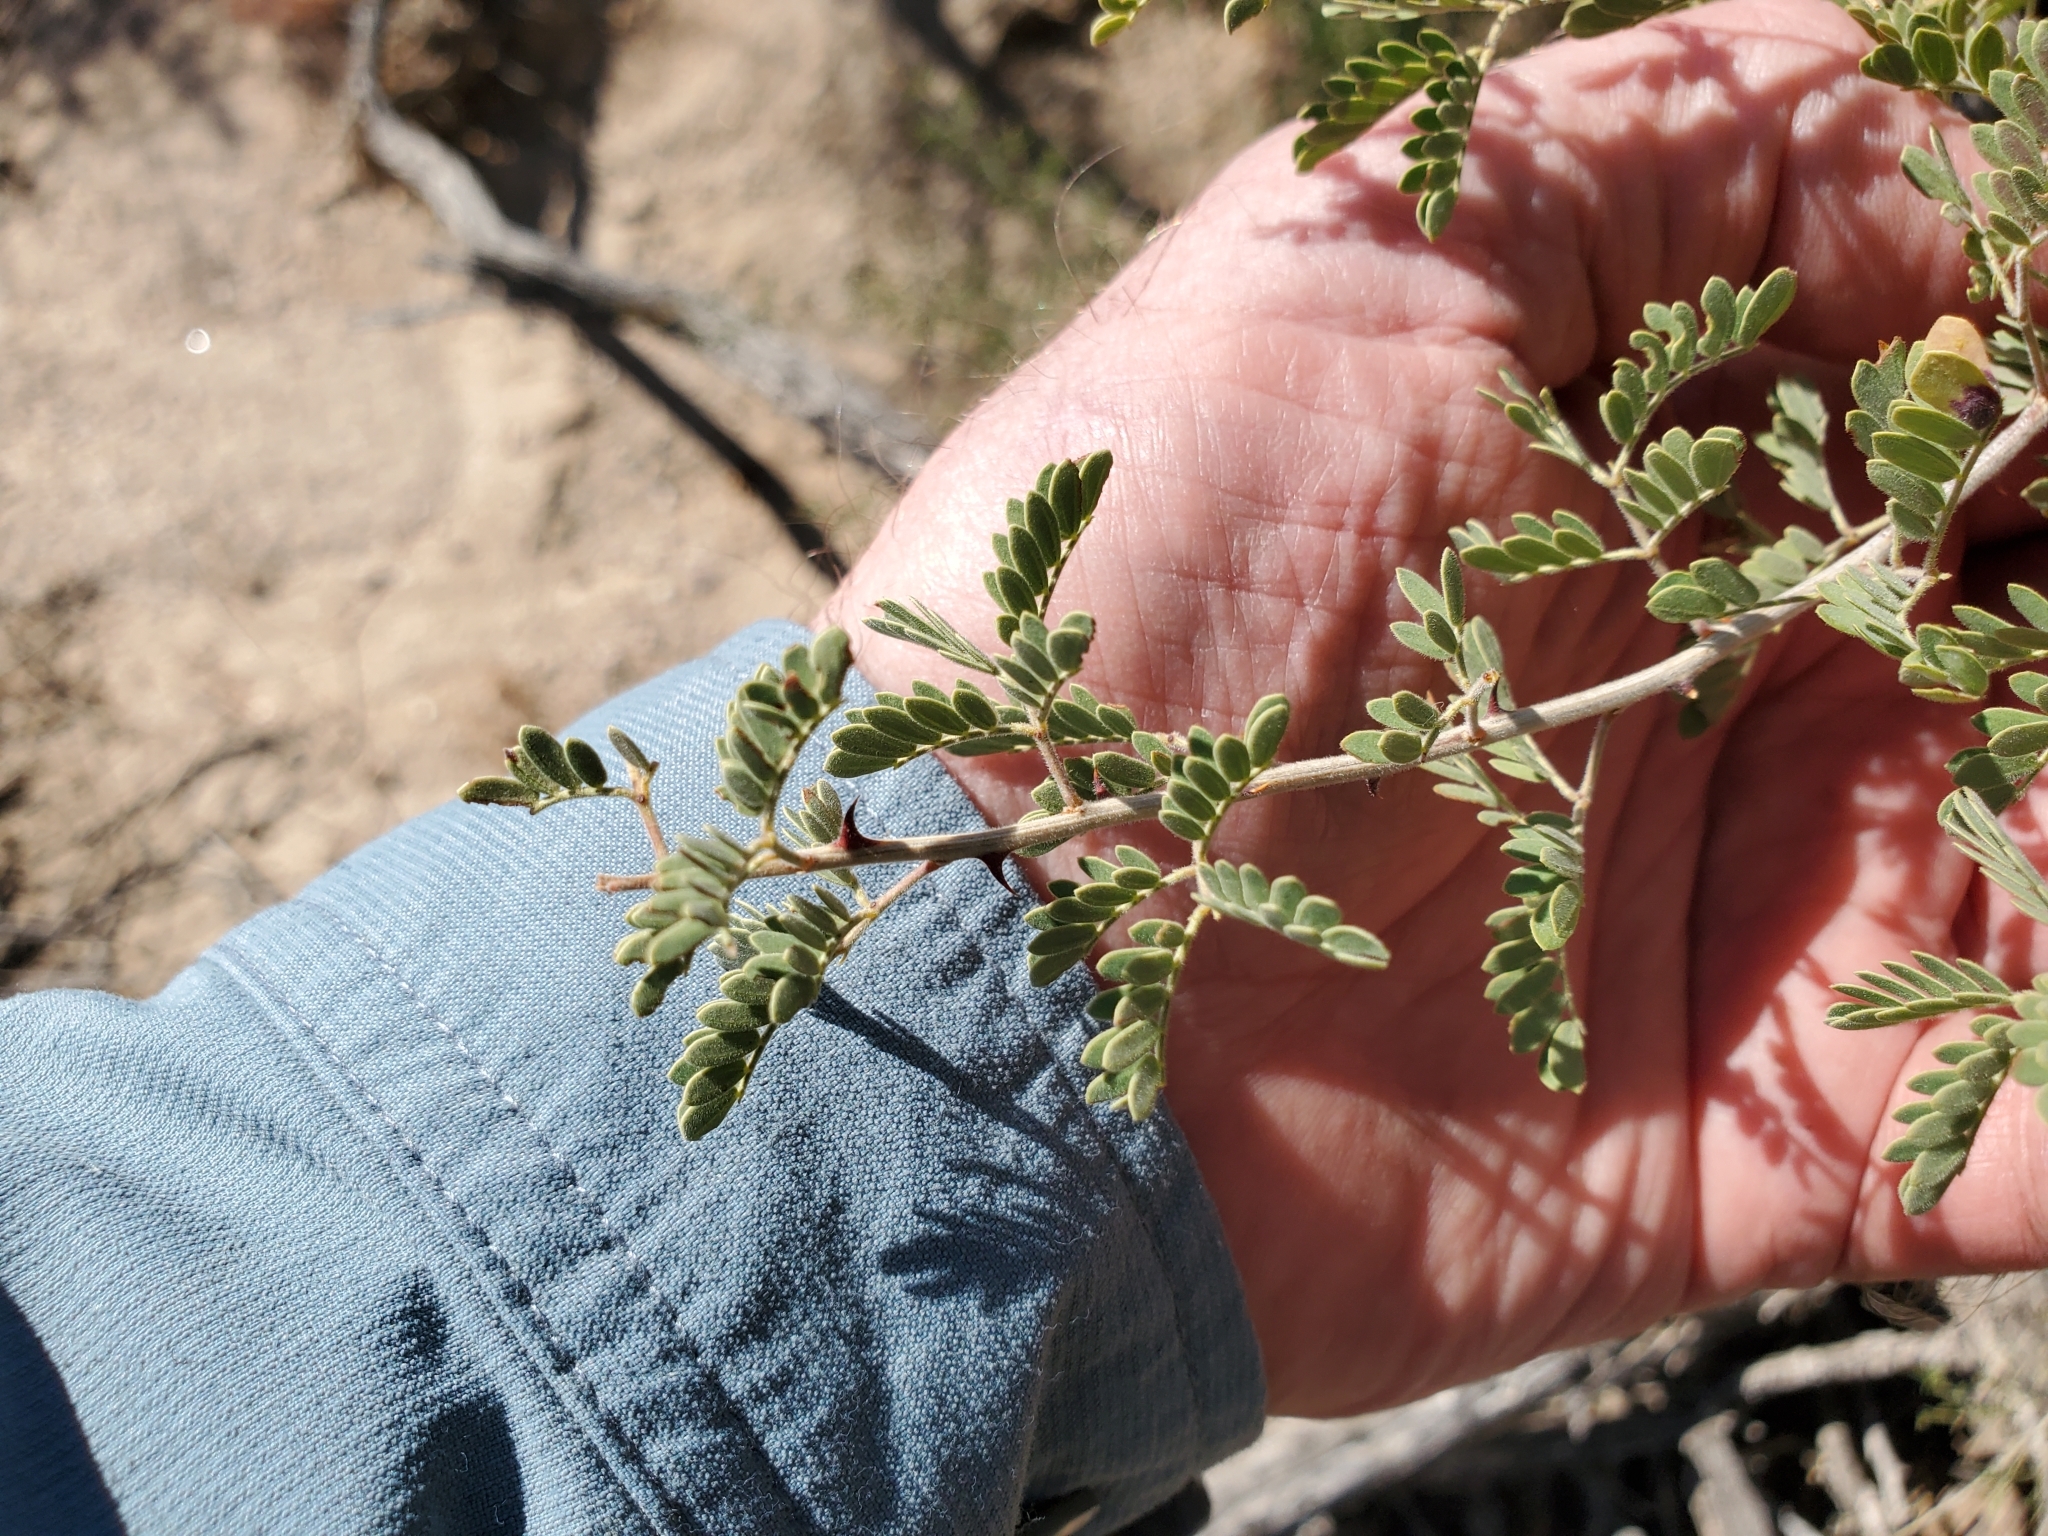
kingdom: Plantae
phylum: Tracheophyta
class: Magnoliopsida
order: Fabales
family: Fabaceae
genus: Senegalia
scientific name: Senegalia greggii
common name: Texas-mimosa
